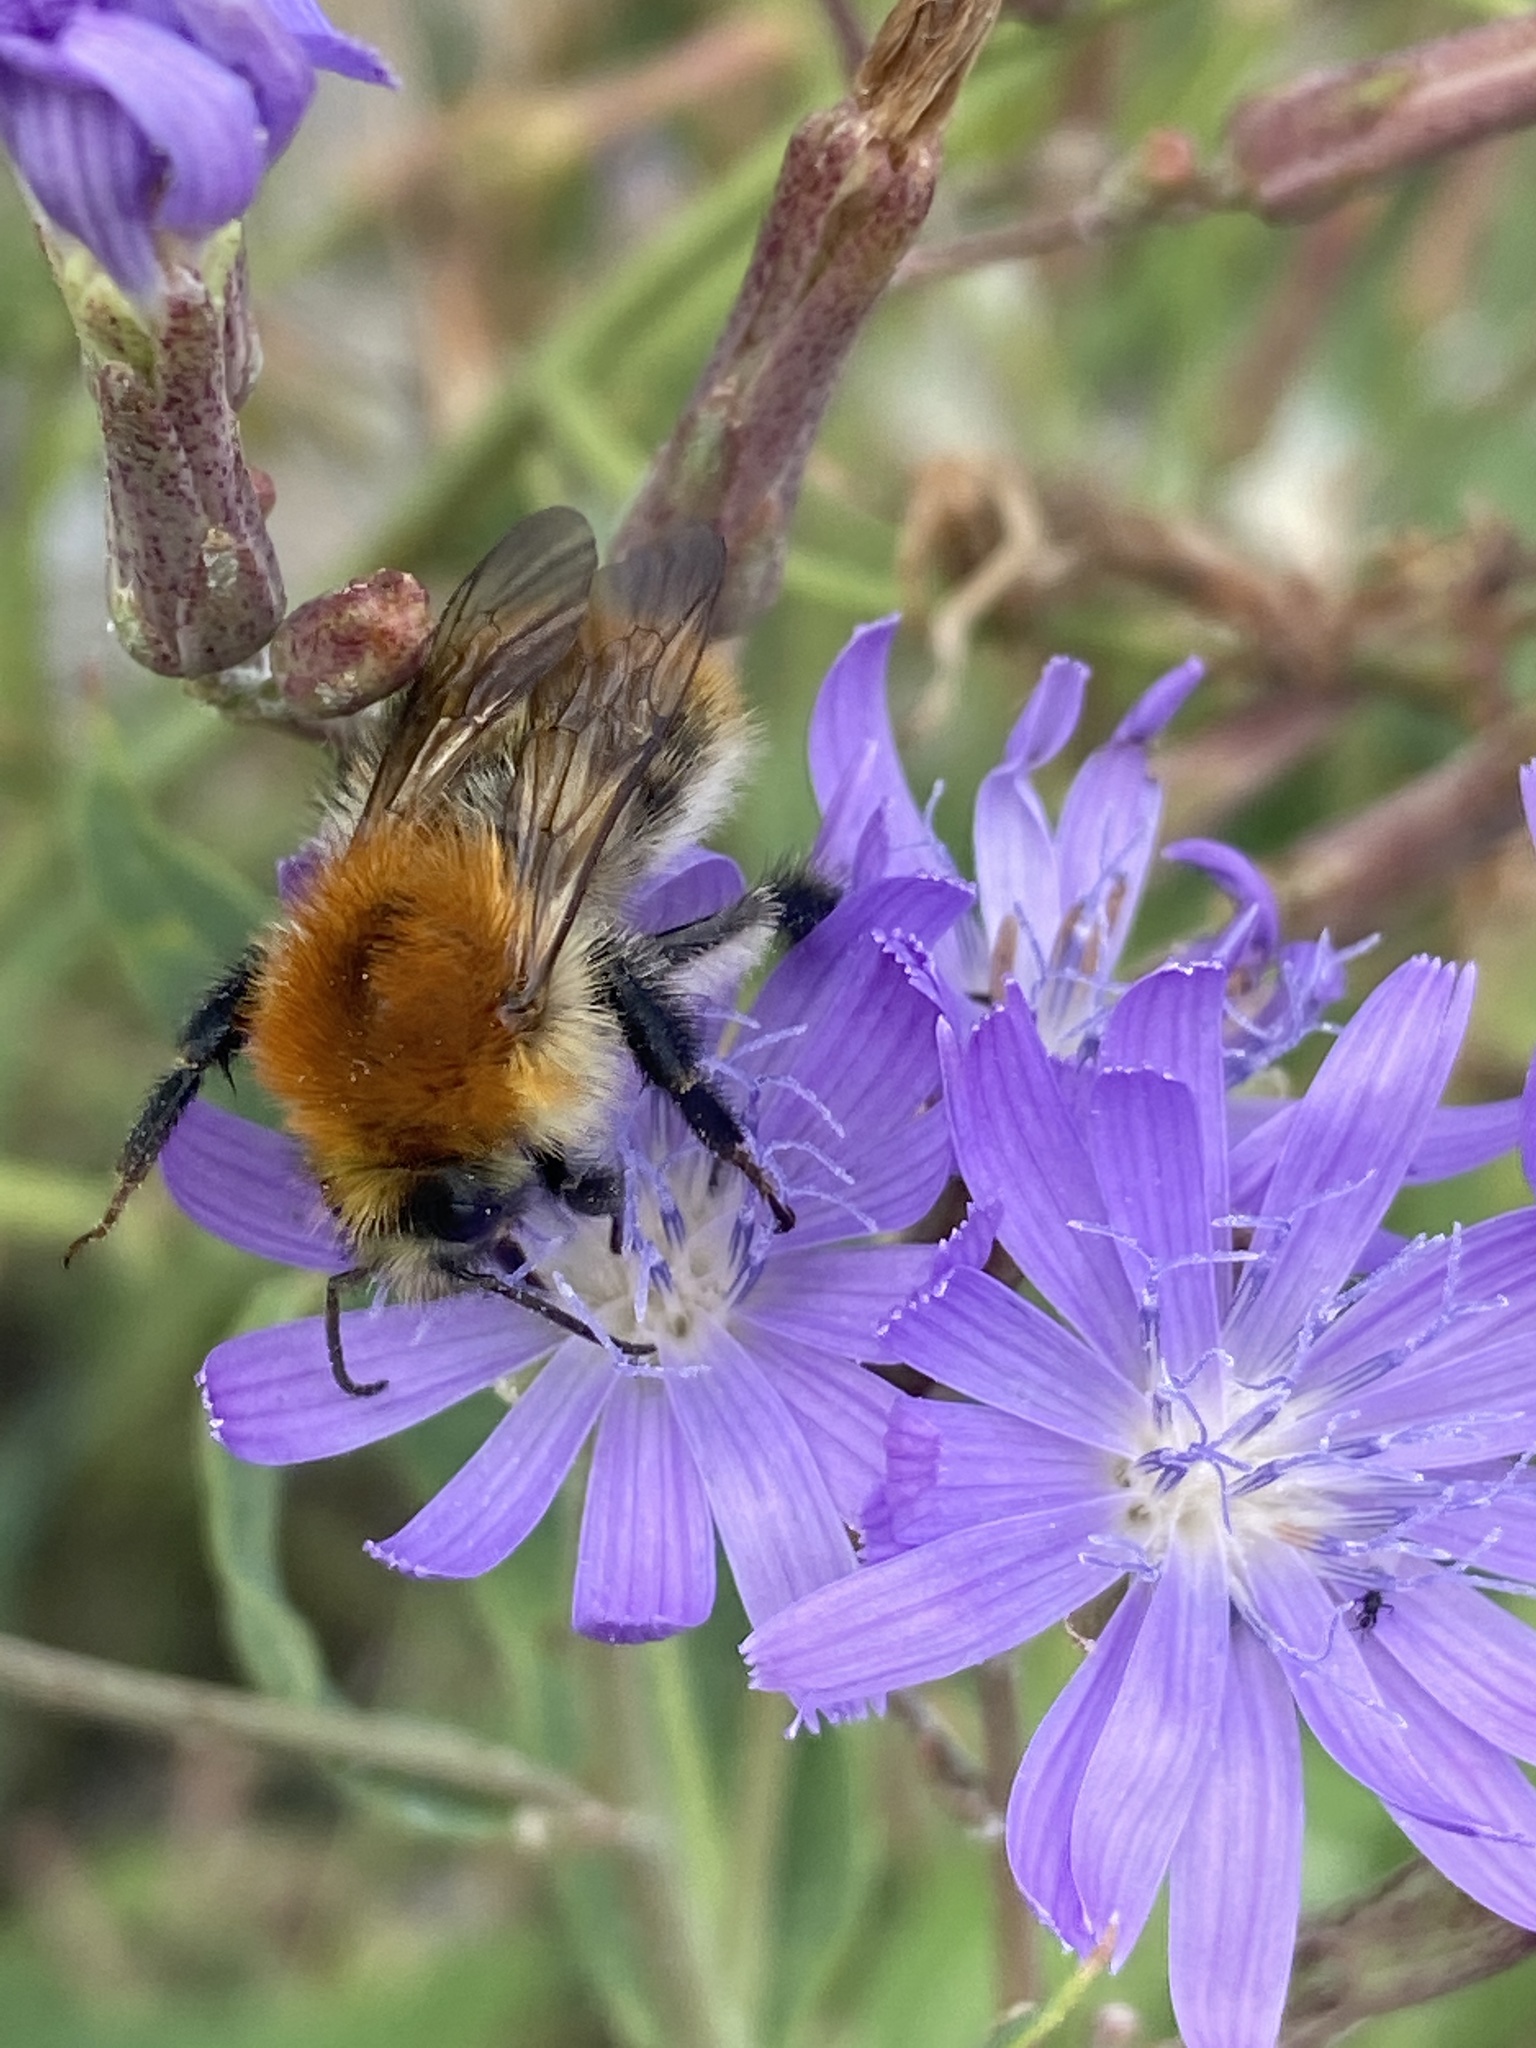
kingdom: Animalia
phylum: Arthropoda
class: Insecta
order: Hymenoptera
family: Apidae
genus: Bombus
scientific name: Bombus pascuorum
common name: Common carder bee
